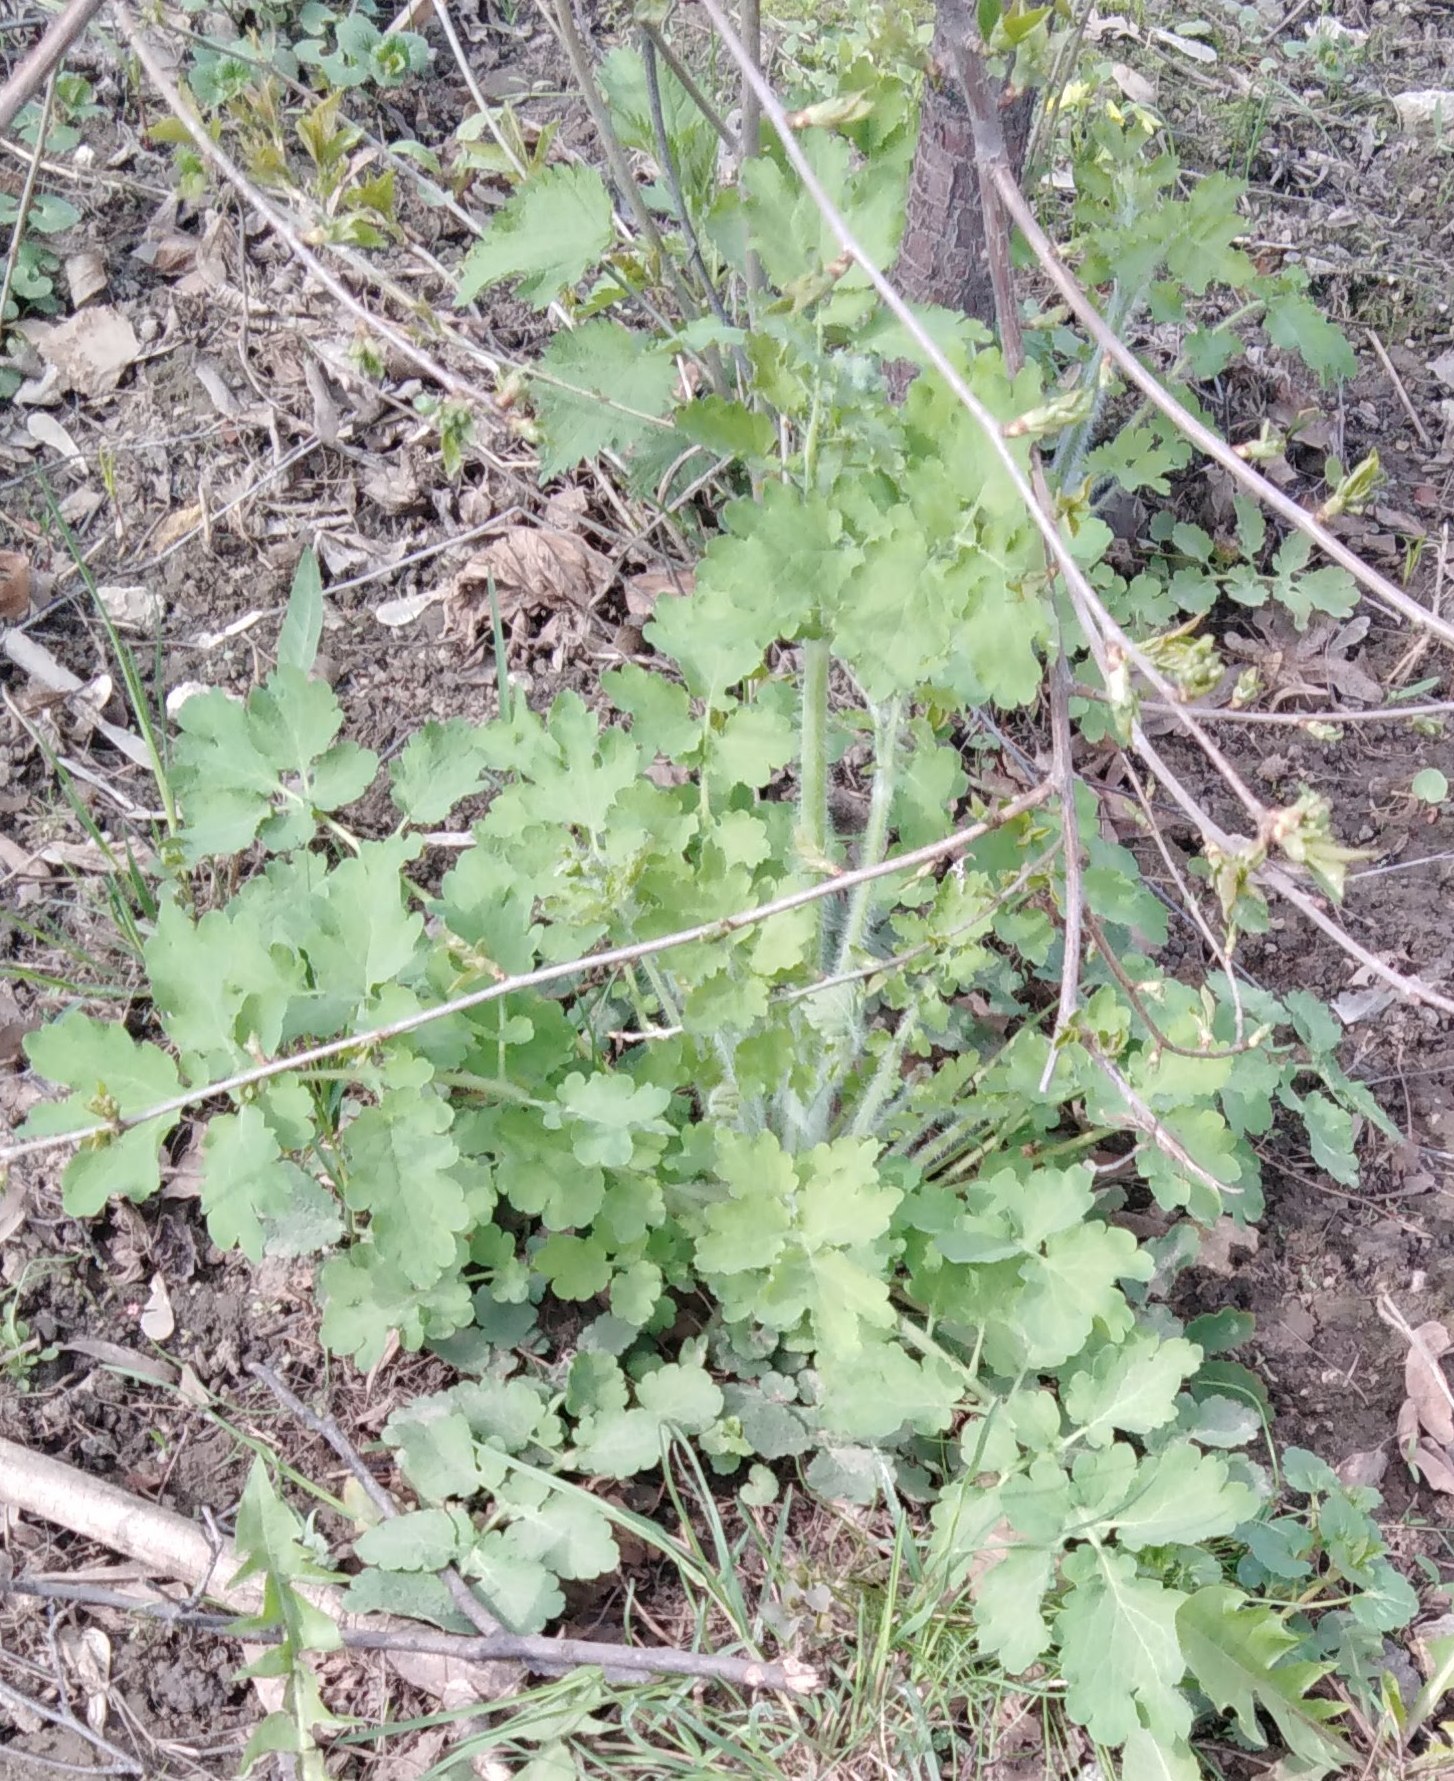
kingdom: Plantae
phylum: Tracheophyta
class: Magnoliopsida
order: Ranunculales
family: Papaveraceae
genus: Chelidonium
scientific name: Chelidonium majus
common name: Greater celandine
